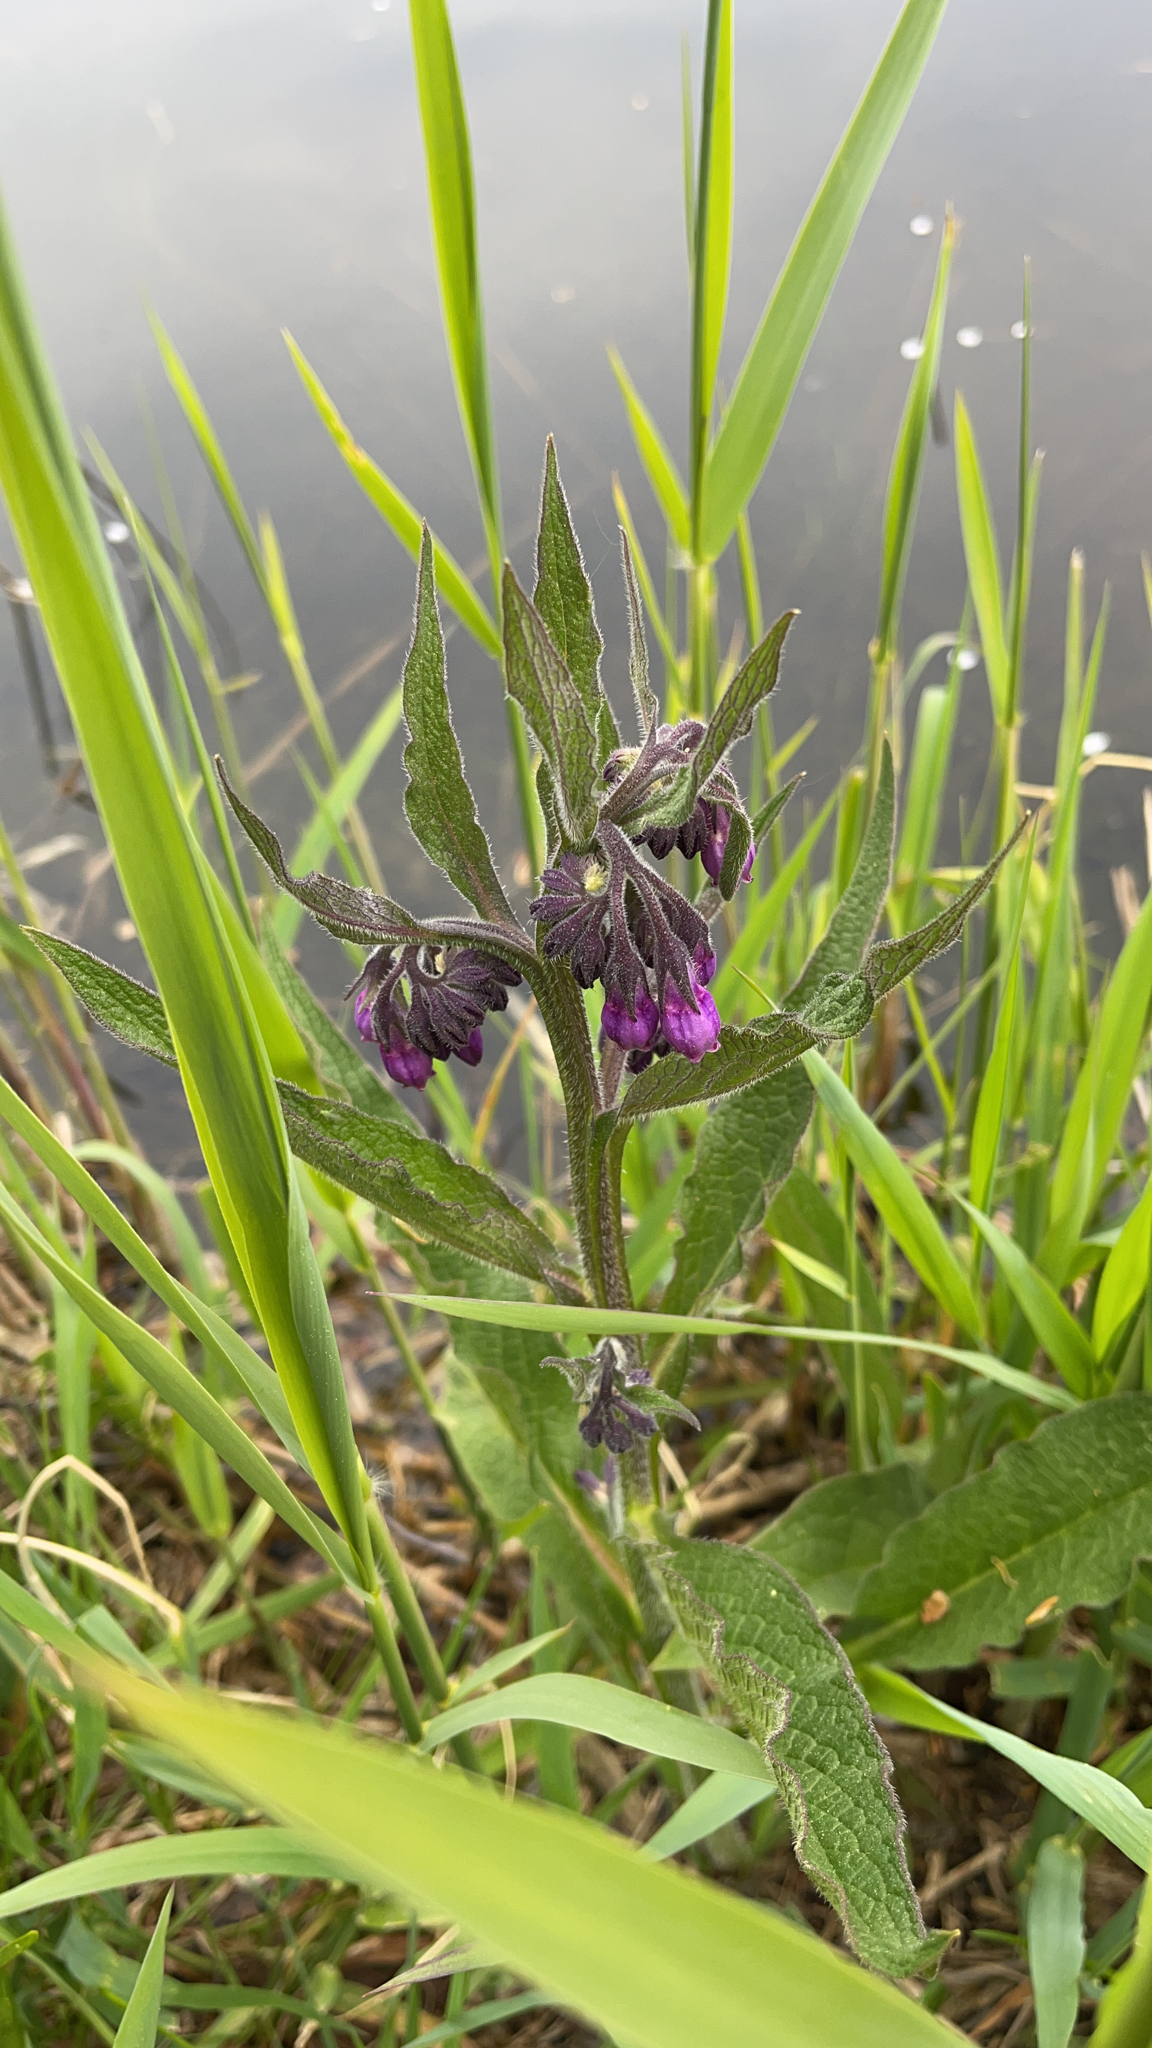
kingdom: Plantae
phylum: Tracheophyta
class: Magnoliopsida
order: Boraginales
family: Boraginaceae
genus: Symphytum
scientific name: Symphytum officinale
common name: Common comfrey
